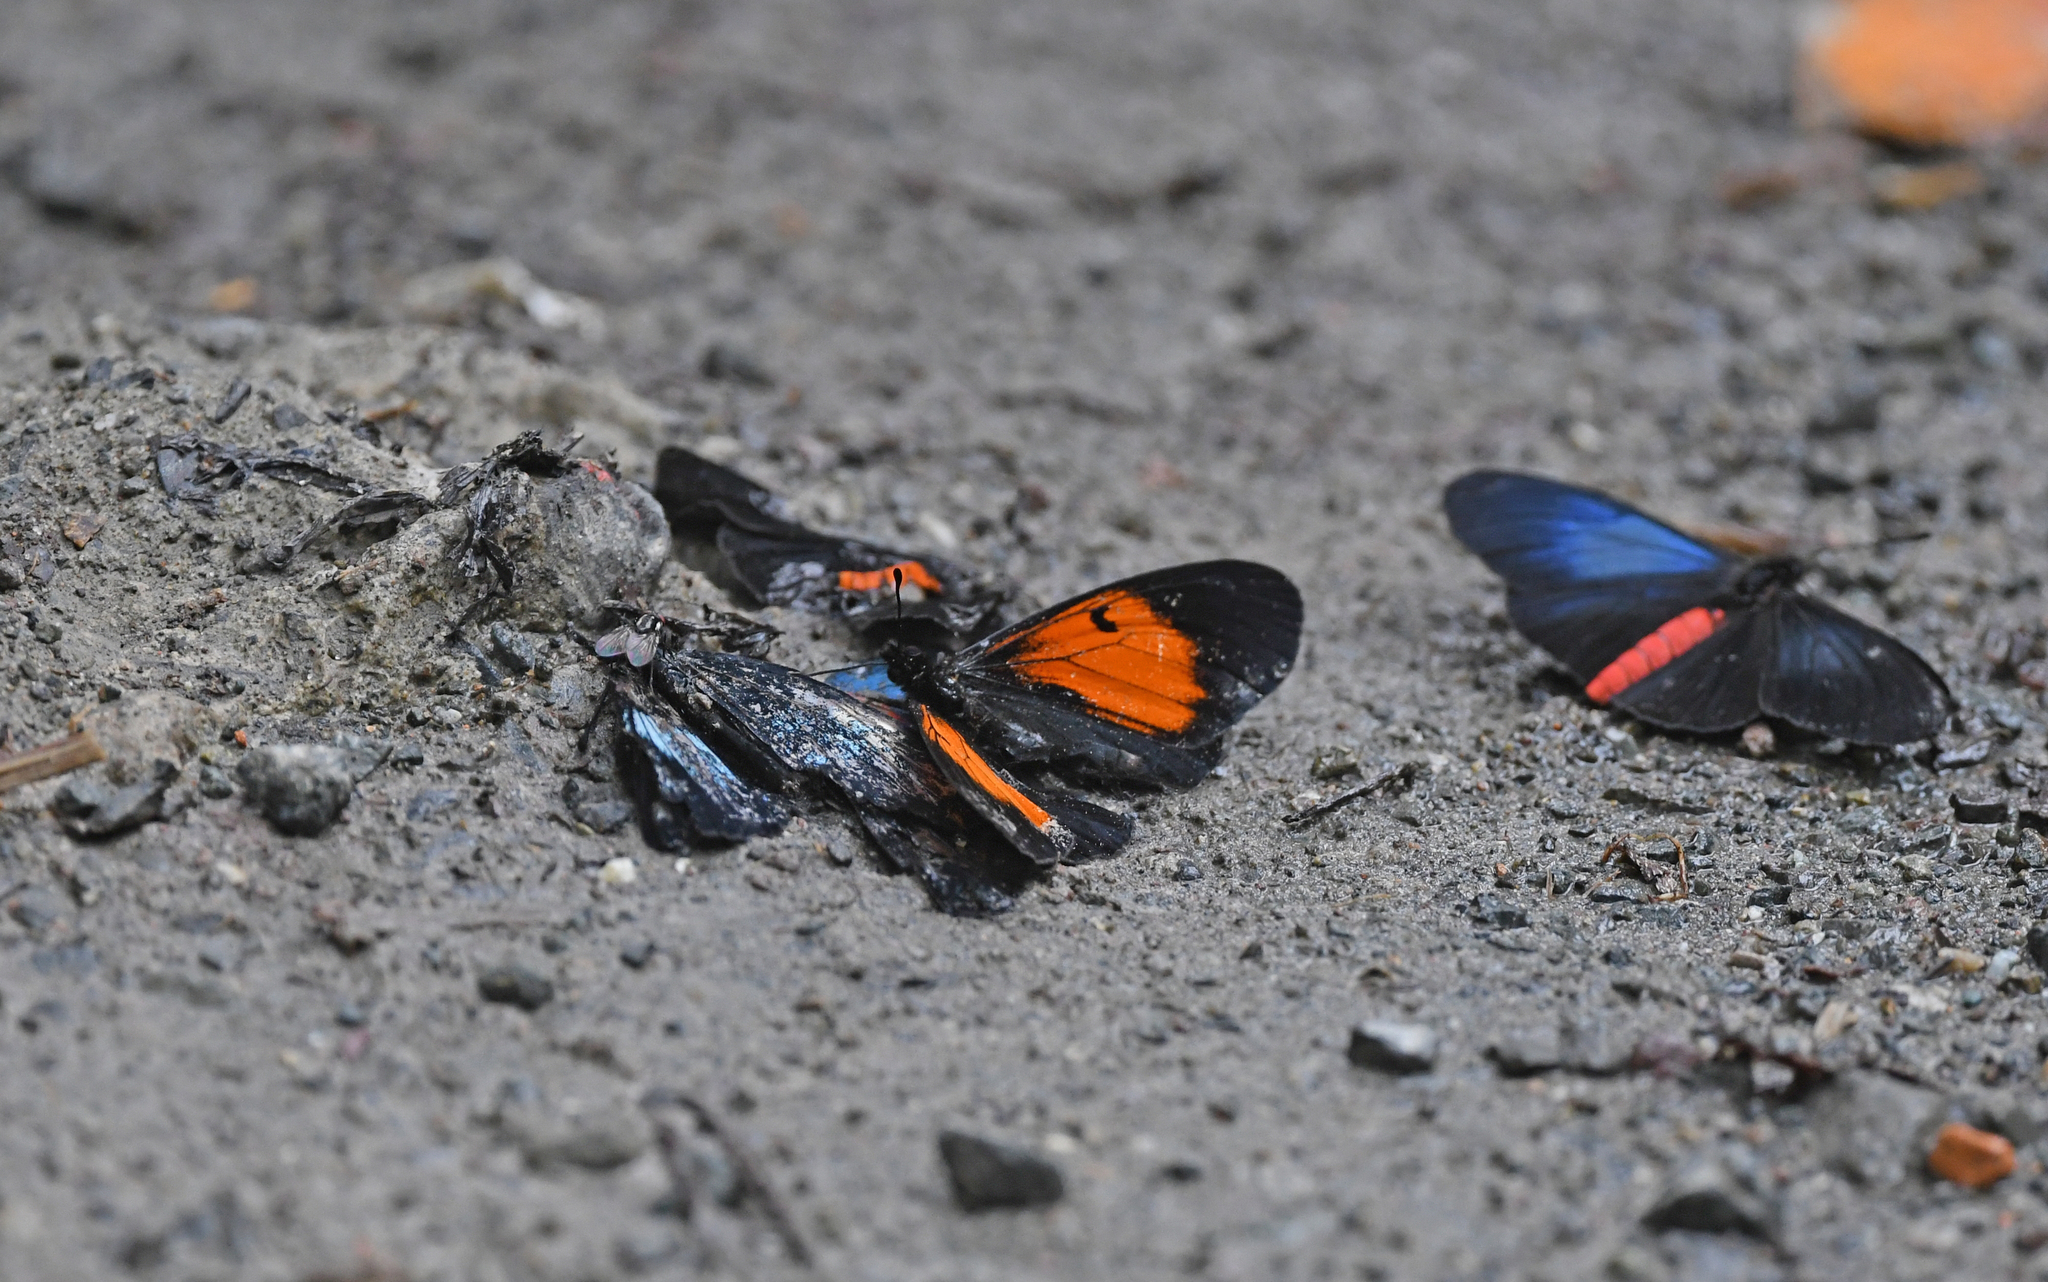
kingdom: Animalia
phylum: Arthropoda
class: Insecta
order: Lepidoptera
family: Nymphalidae
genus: Actinote
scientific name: Actinote stratonice
